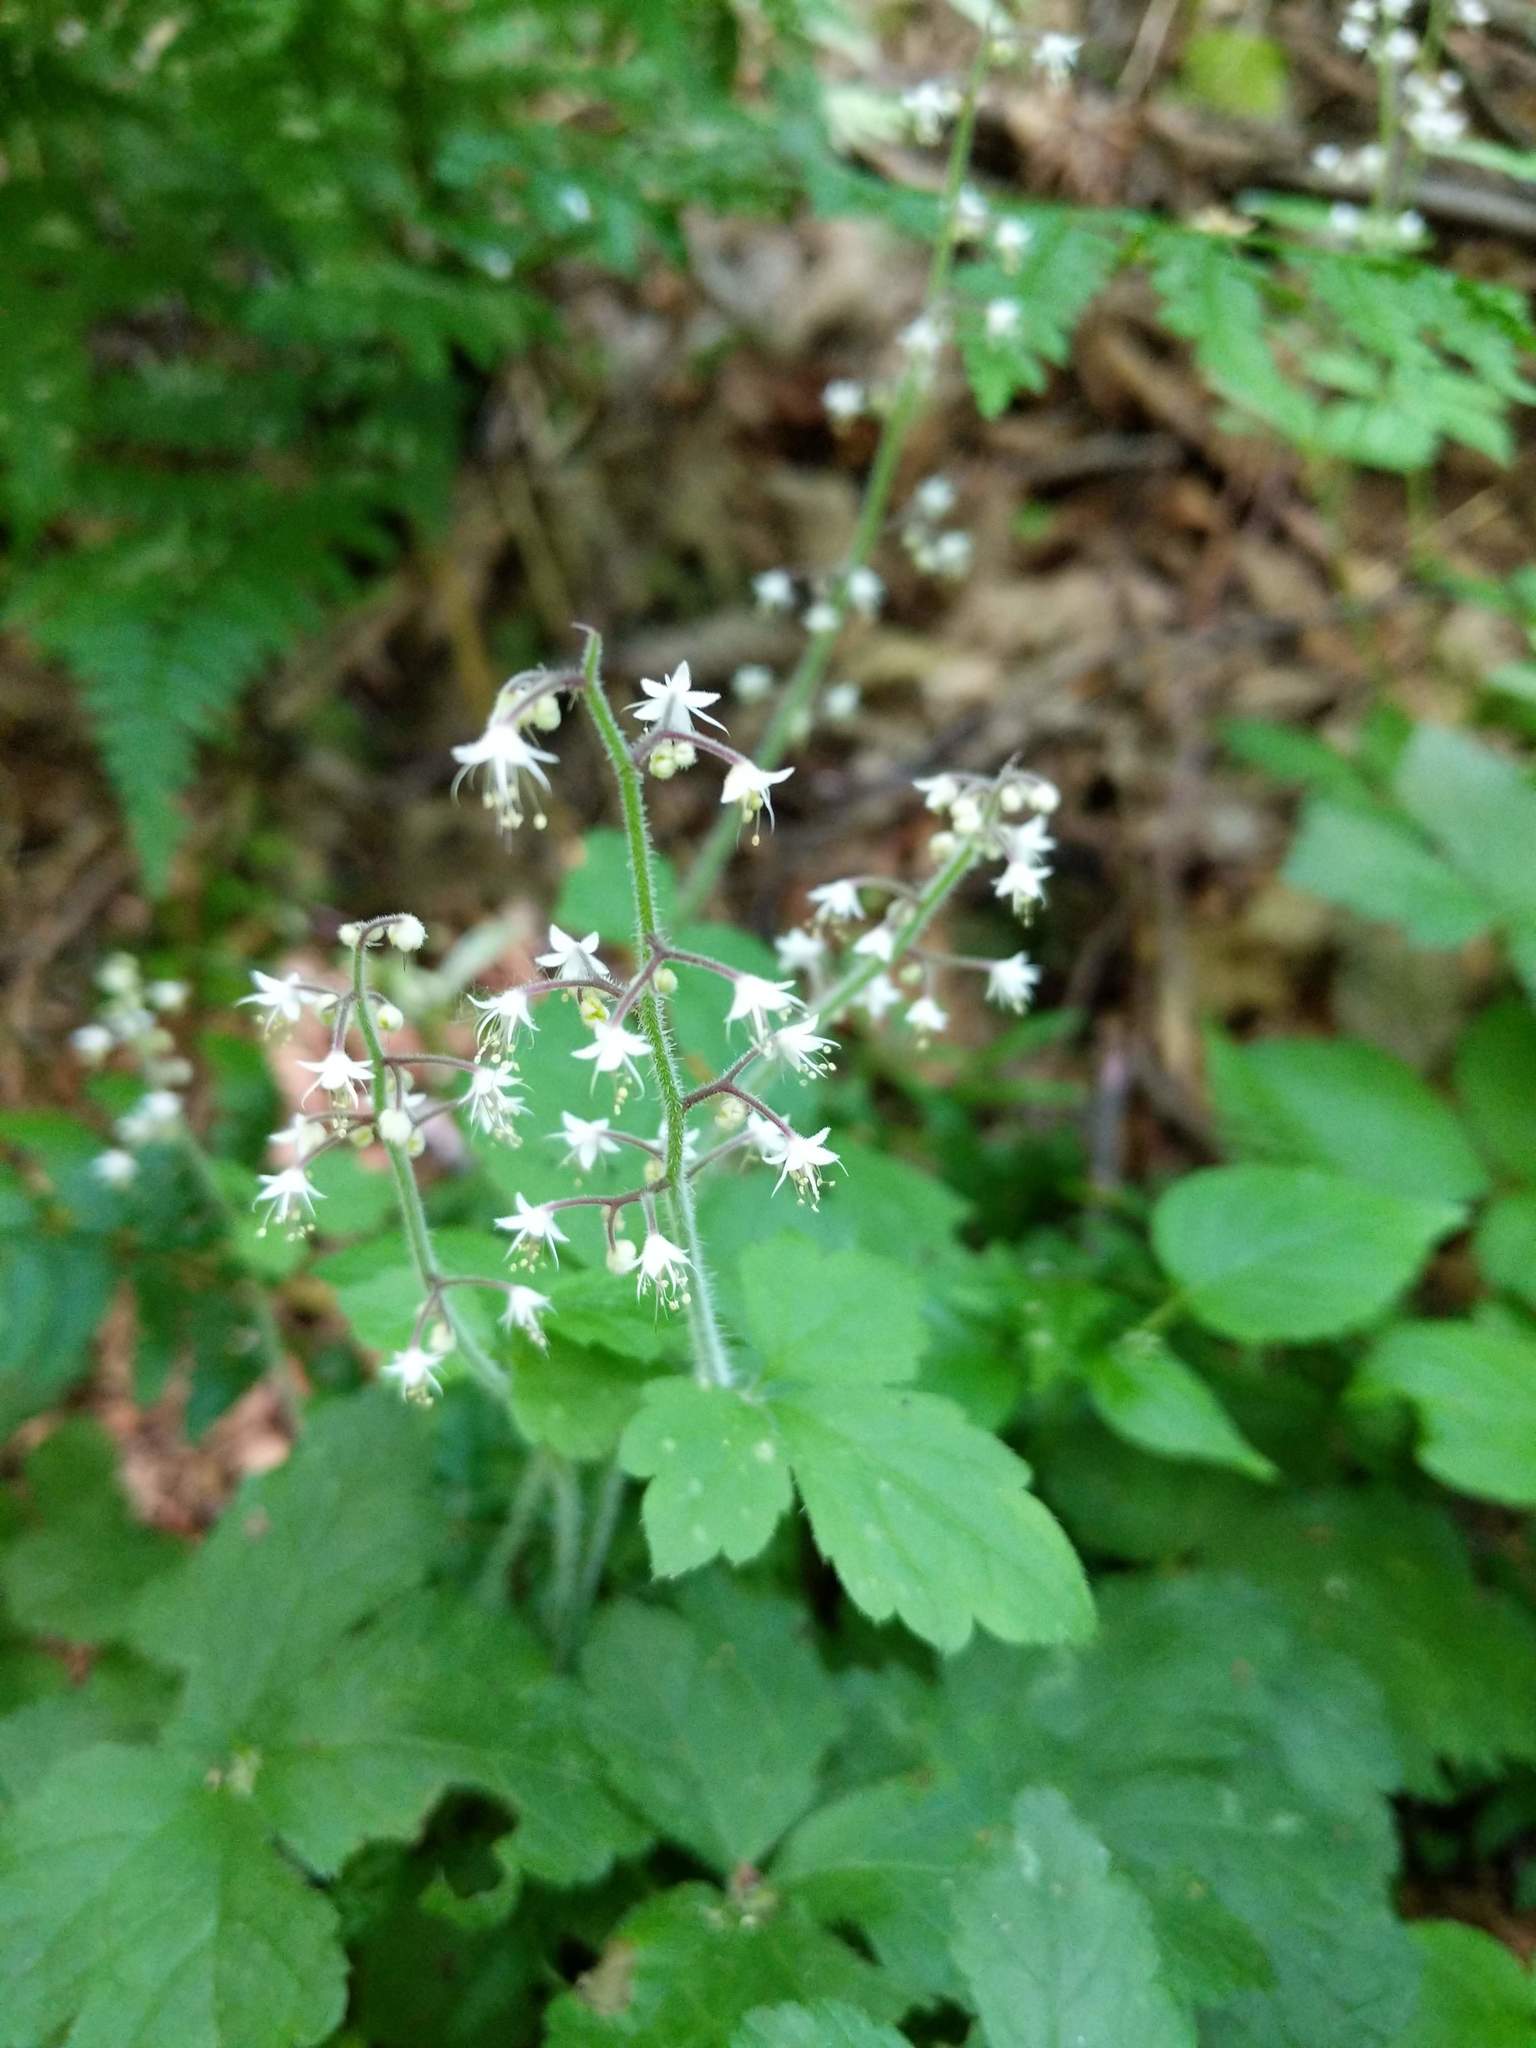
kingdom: Plantae
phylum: Tracheophyta
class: Magnoliopsida
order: Saxifragales
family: Saxifragaceae
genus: Tiarella
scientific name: Tiarella trifoliata
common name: Sugar-scoop
